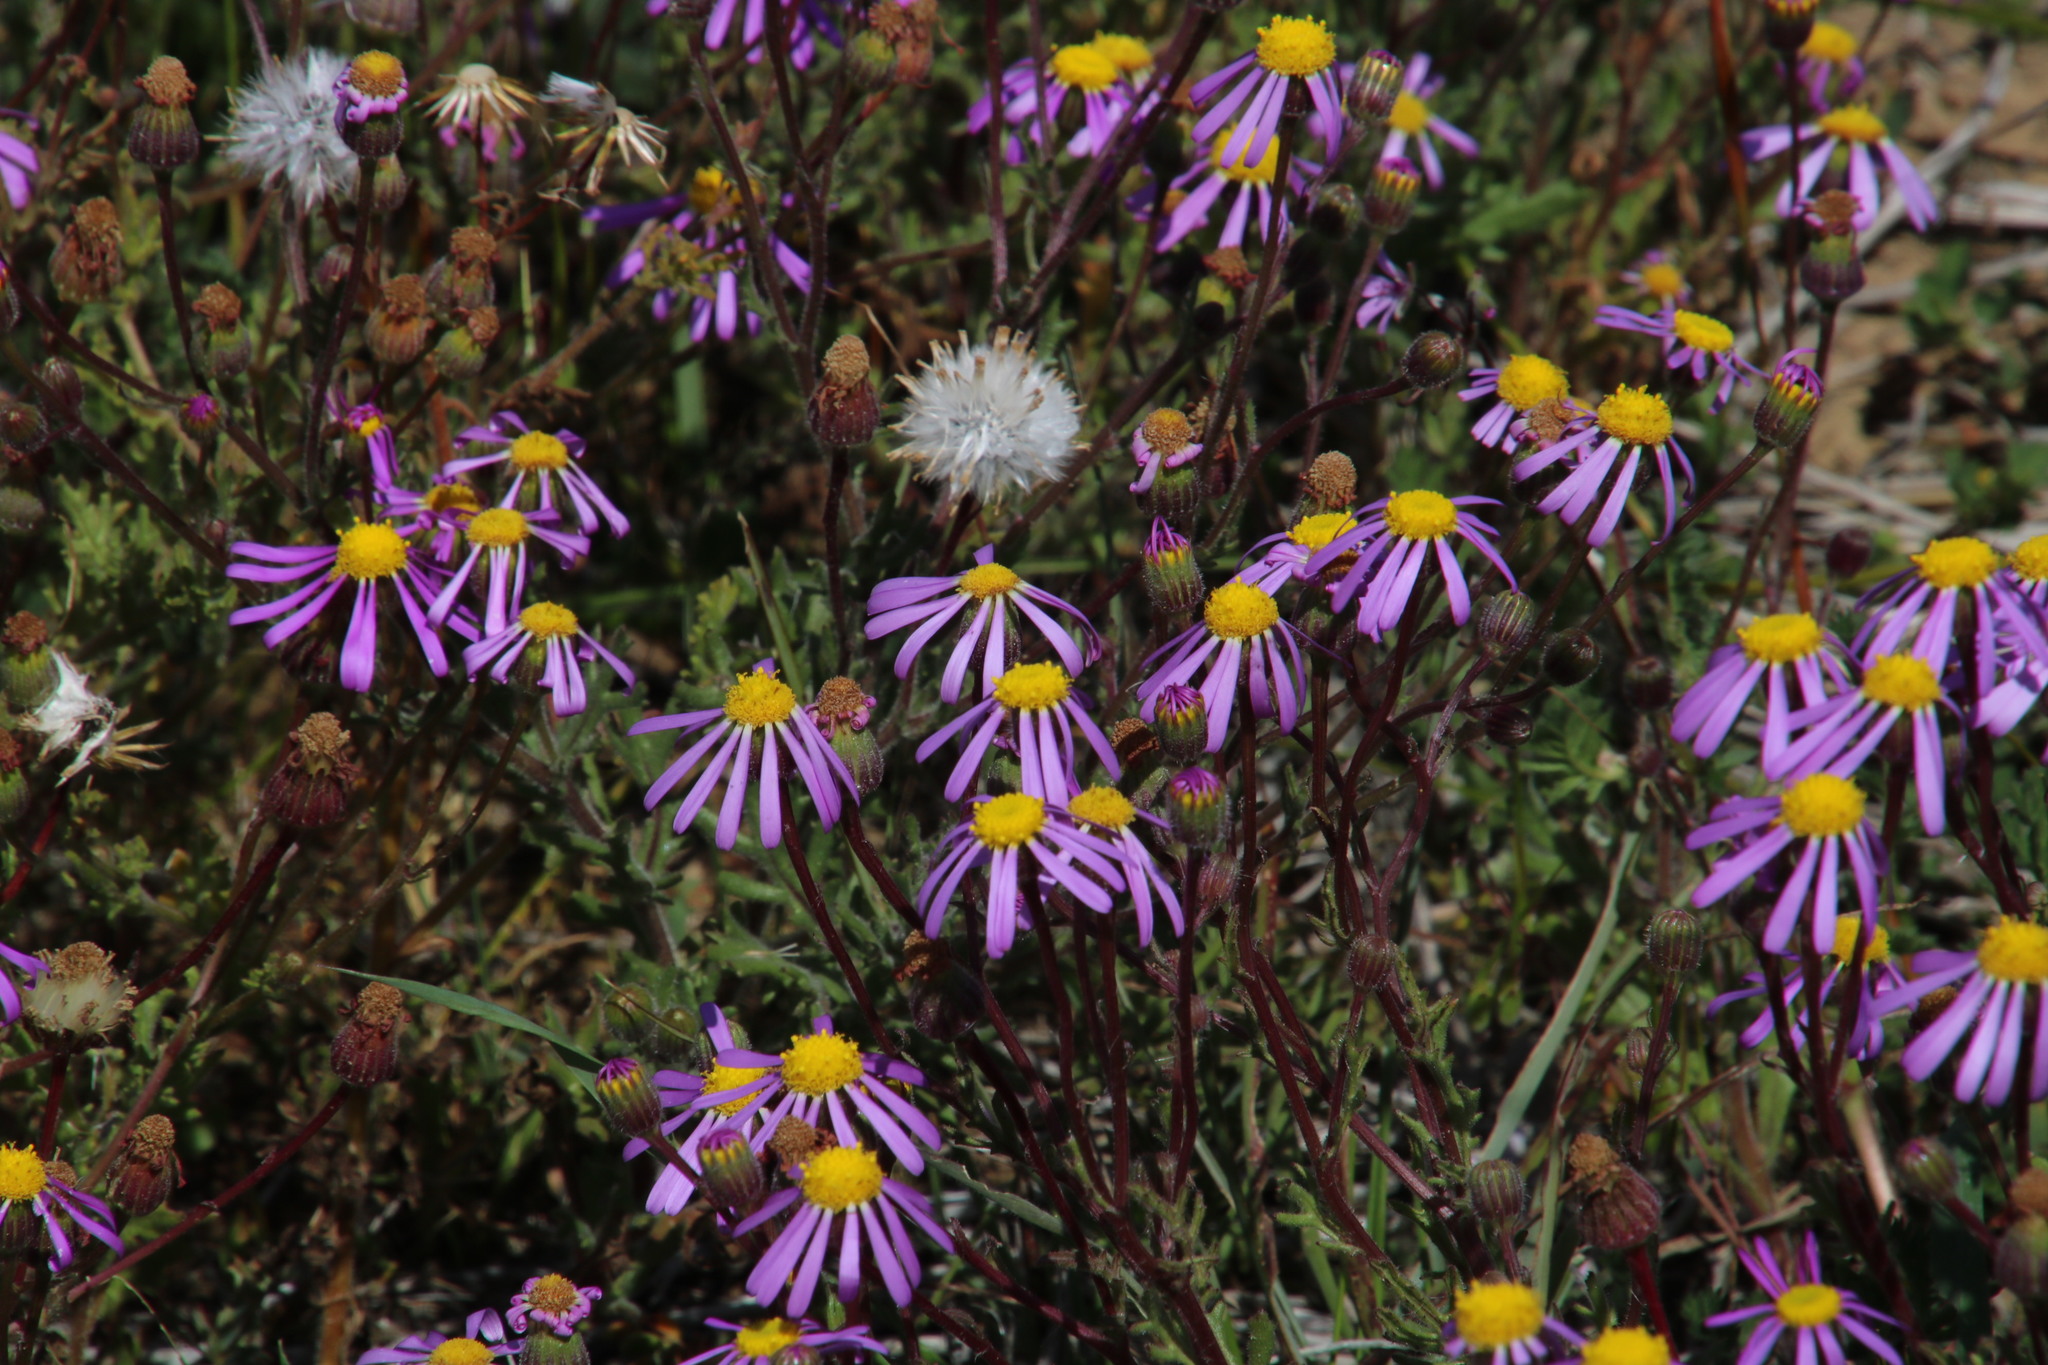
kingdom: Plantae
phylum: Tracheophyta
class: Magnoliopsida
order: Asterales
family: Asteraceae
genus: Senecio
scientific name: Senecio arenarius
